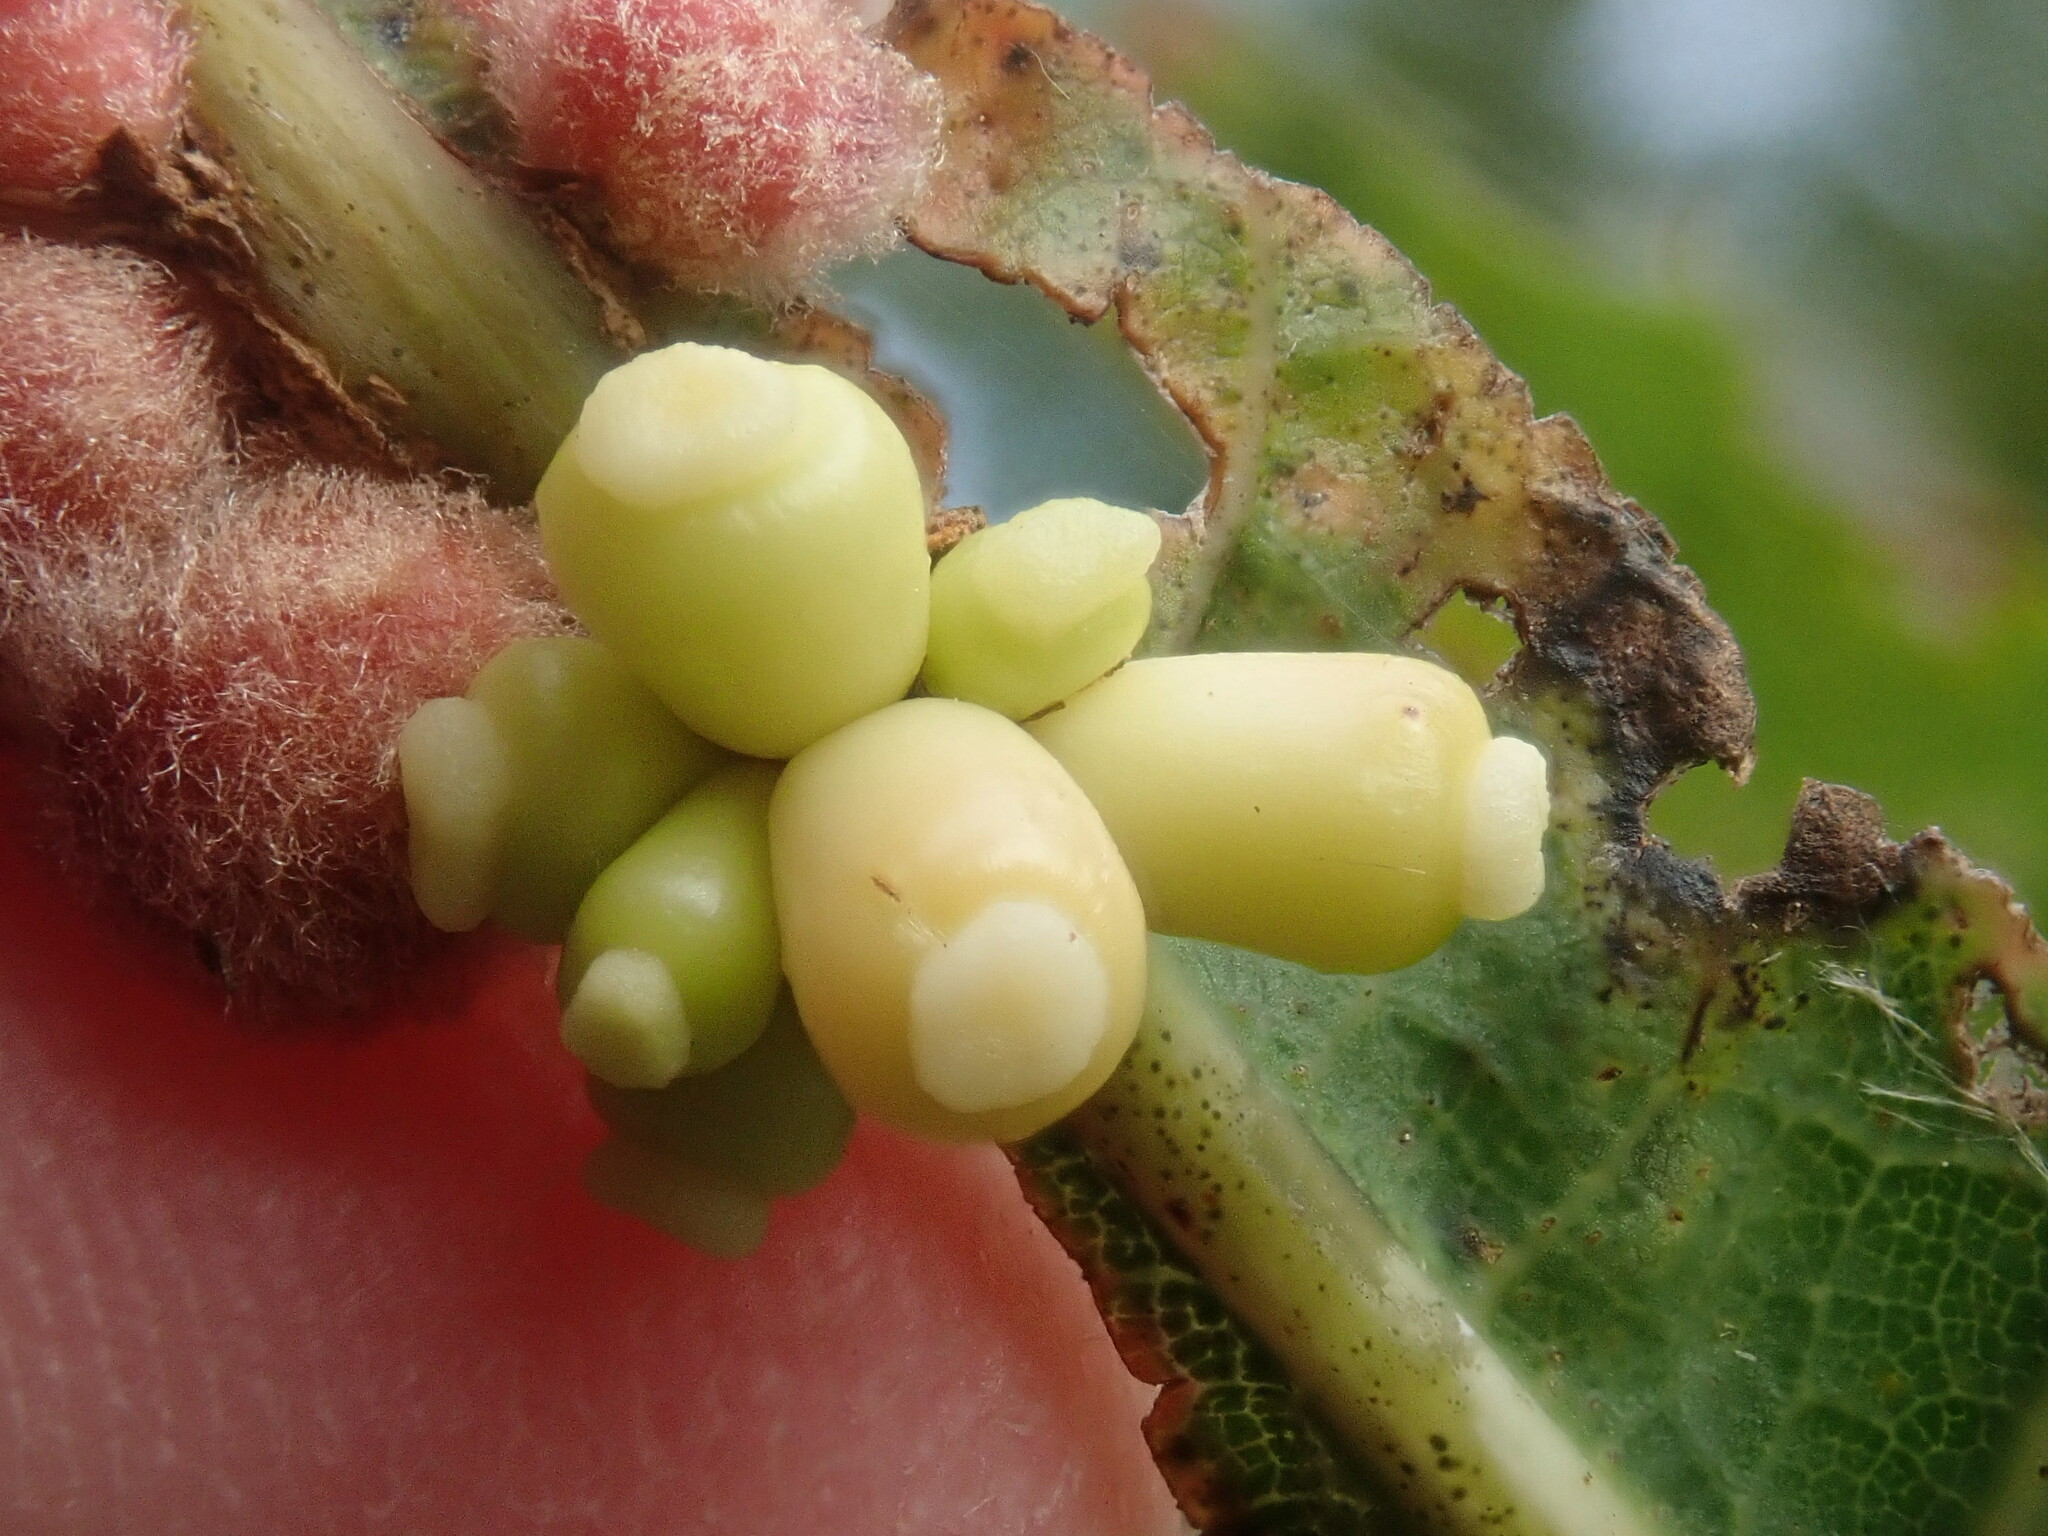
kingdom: Animalia
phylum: Arthropoda
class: Insecta
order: Hymenoptera
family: Cynipidae
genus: Kokkocynips
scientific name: Kokkocynips decidua
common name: Oak wheat gall
